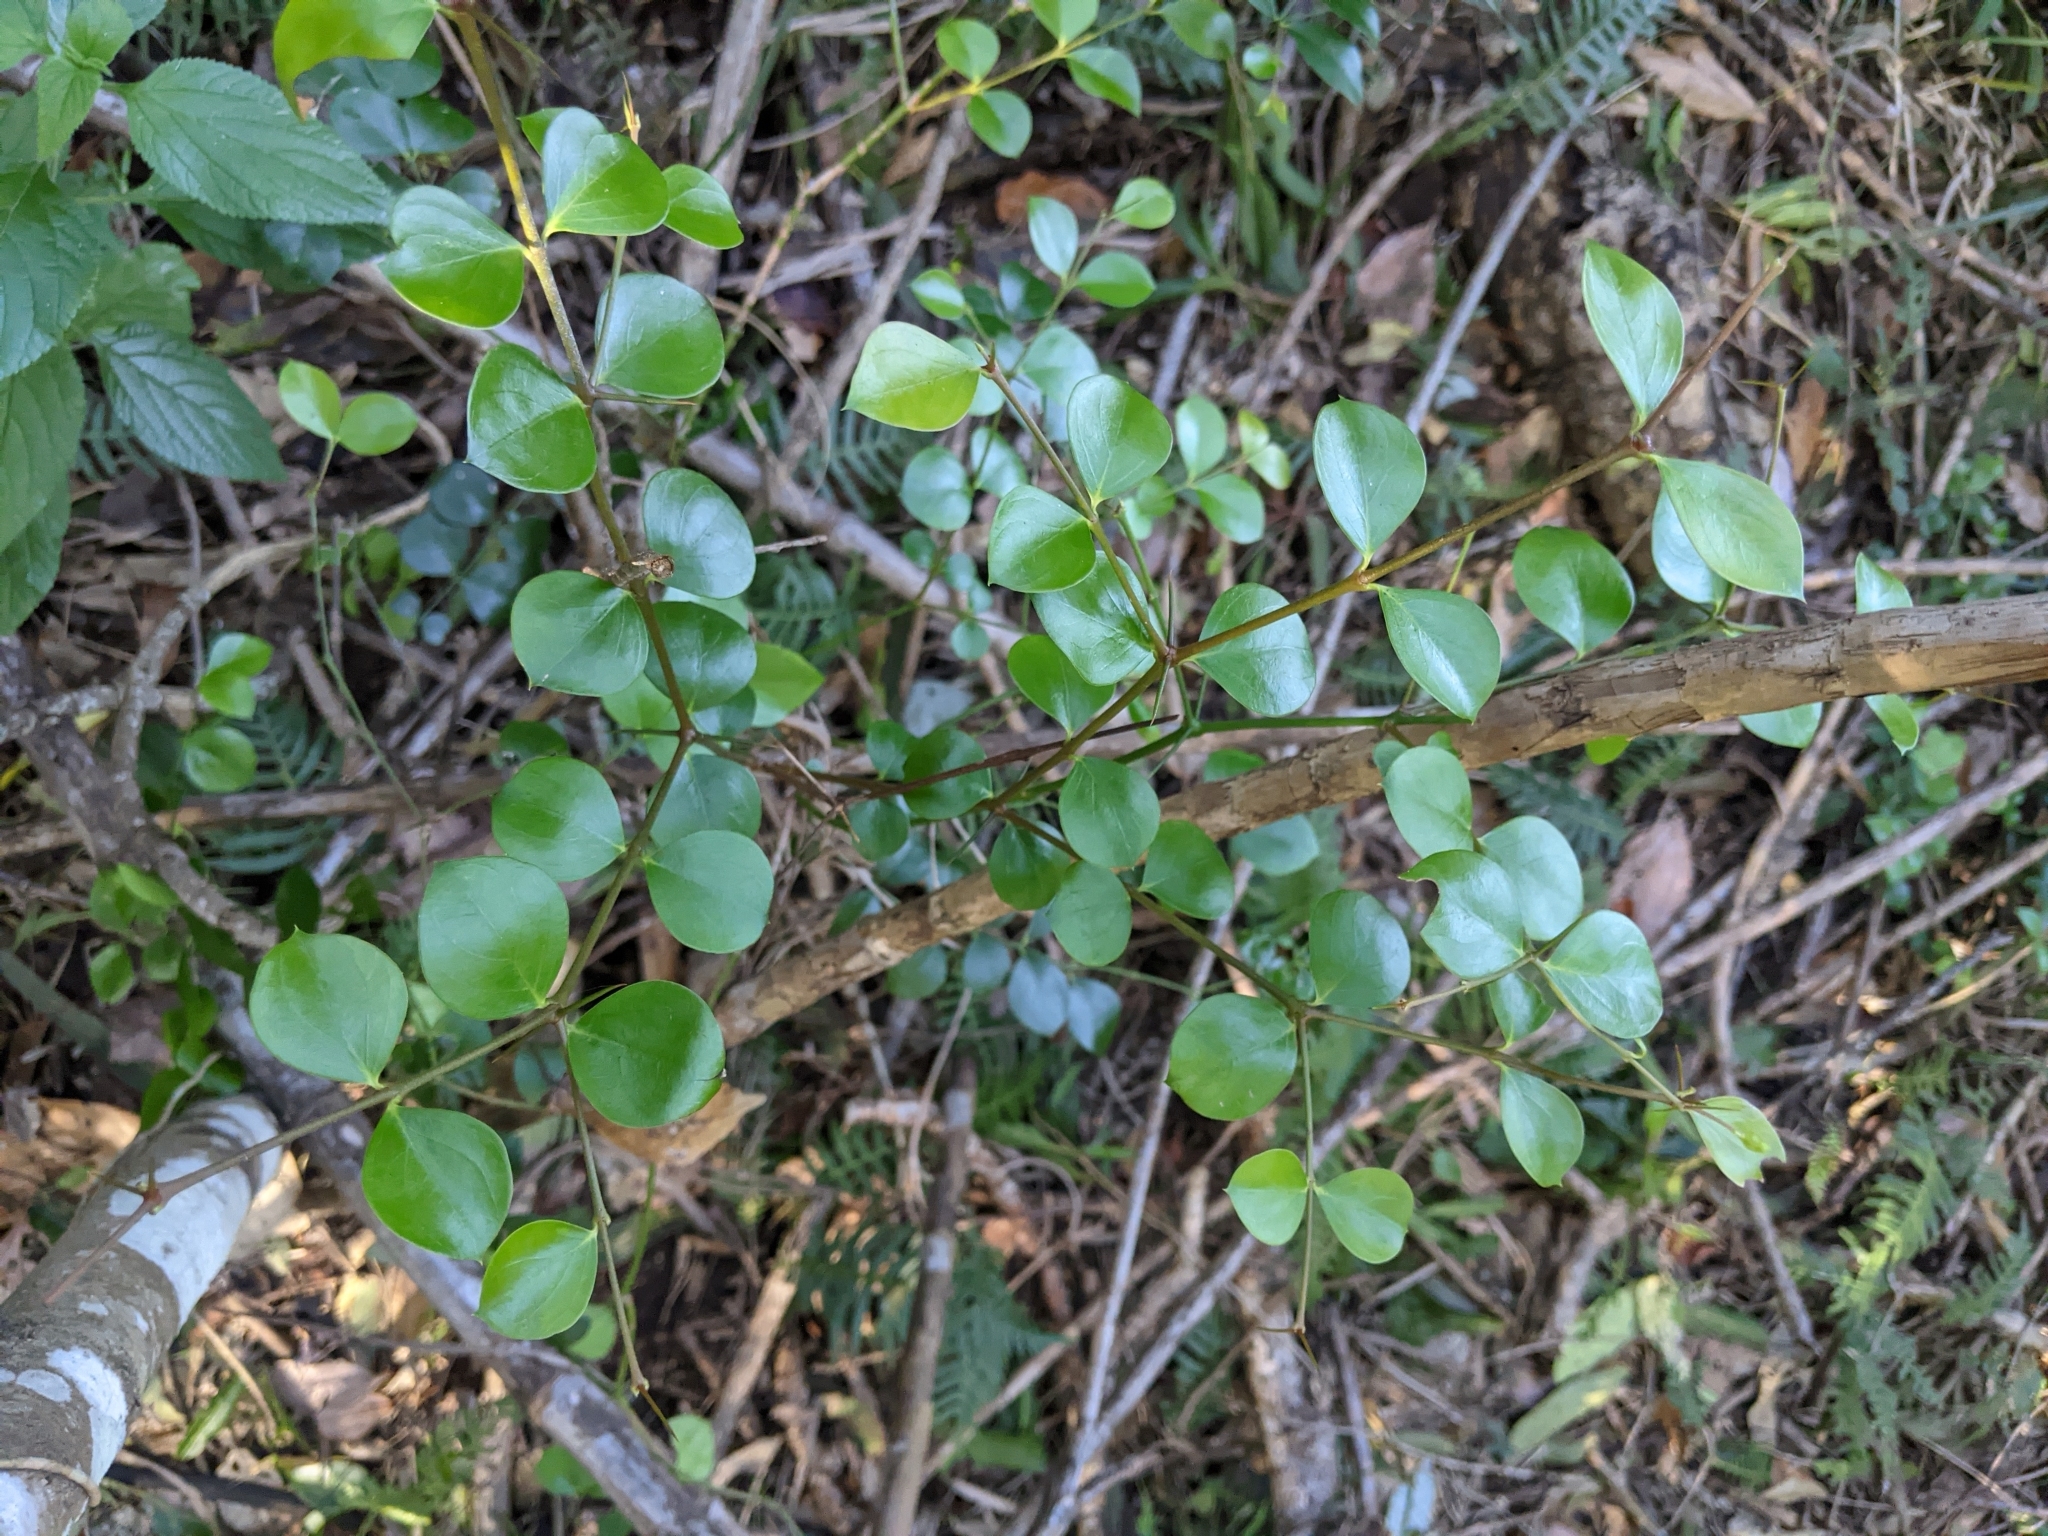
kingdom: Plantae
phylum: Tracheophyta
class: Magnoliopsida
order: Gentianales
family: Apocynaceae
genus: Carissa
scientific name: Carissa ovata
